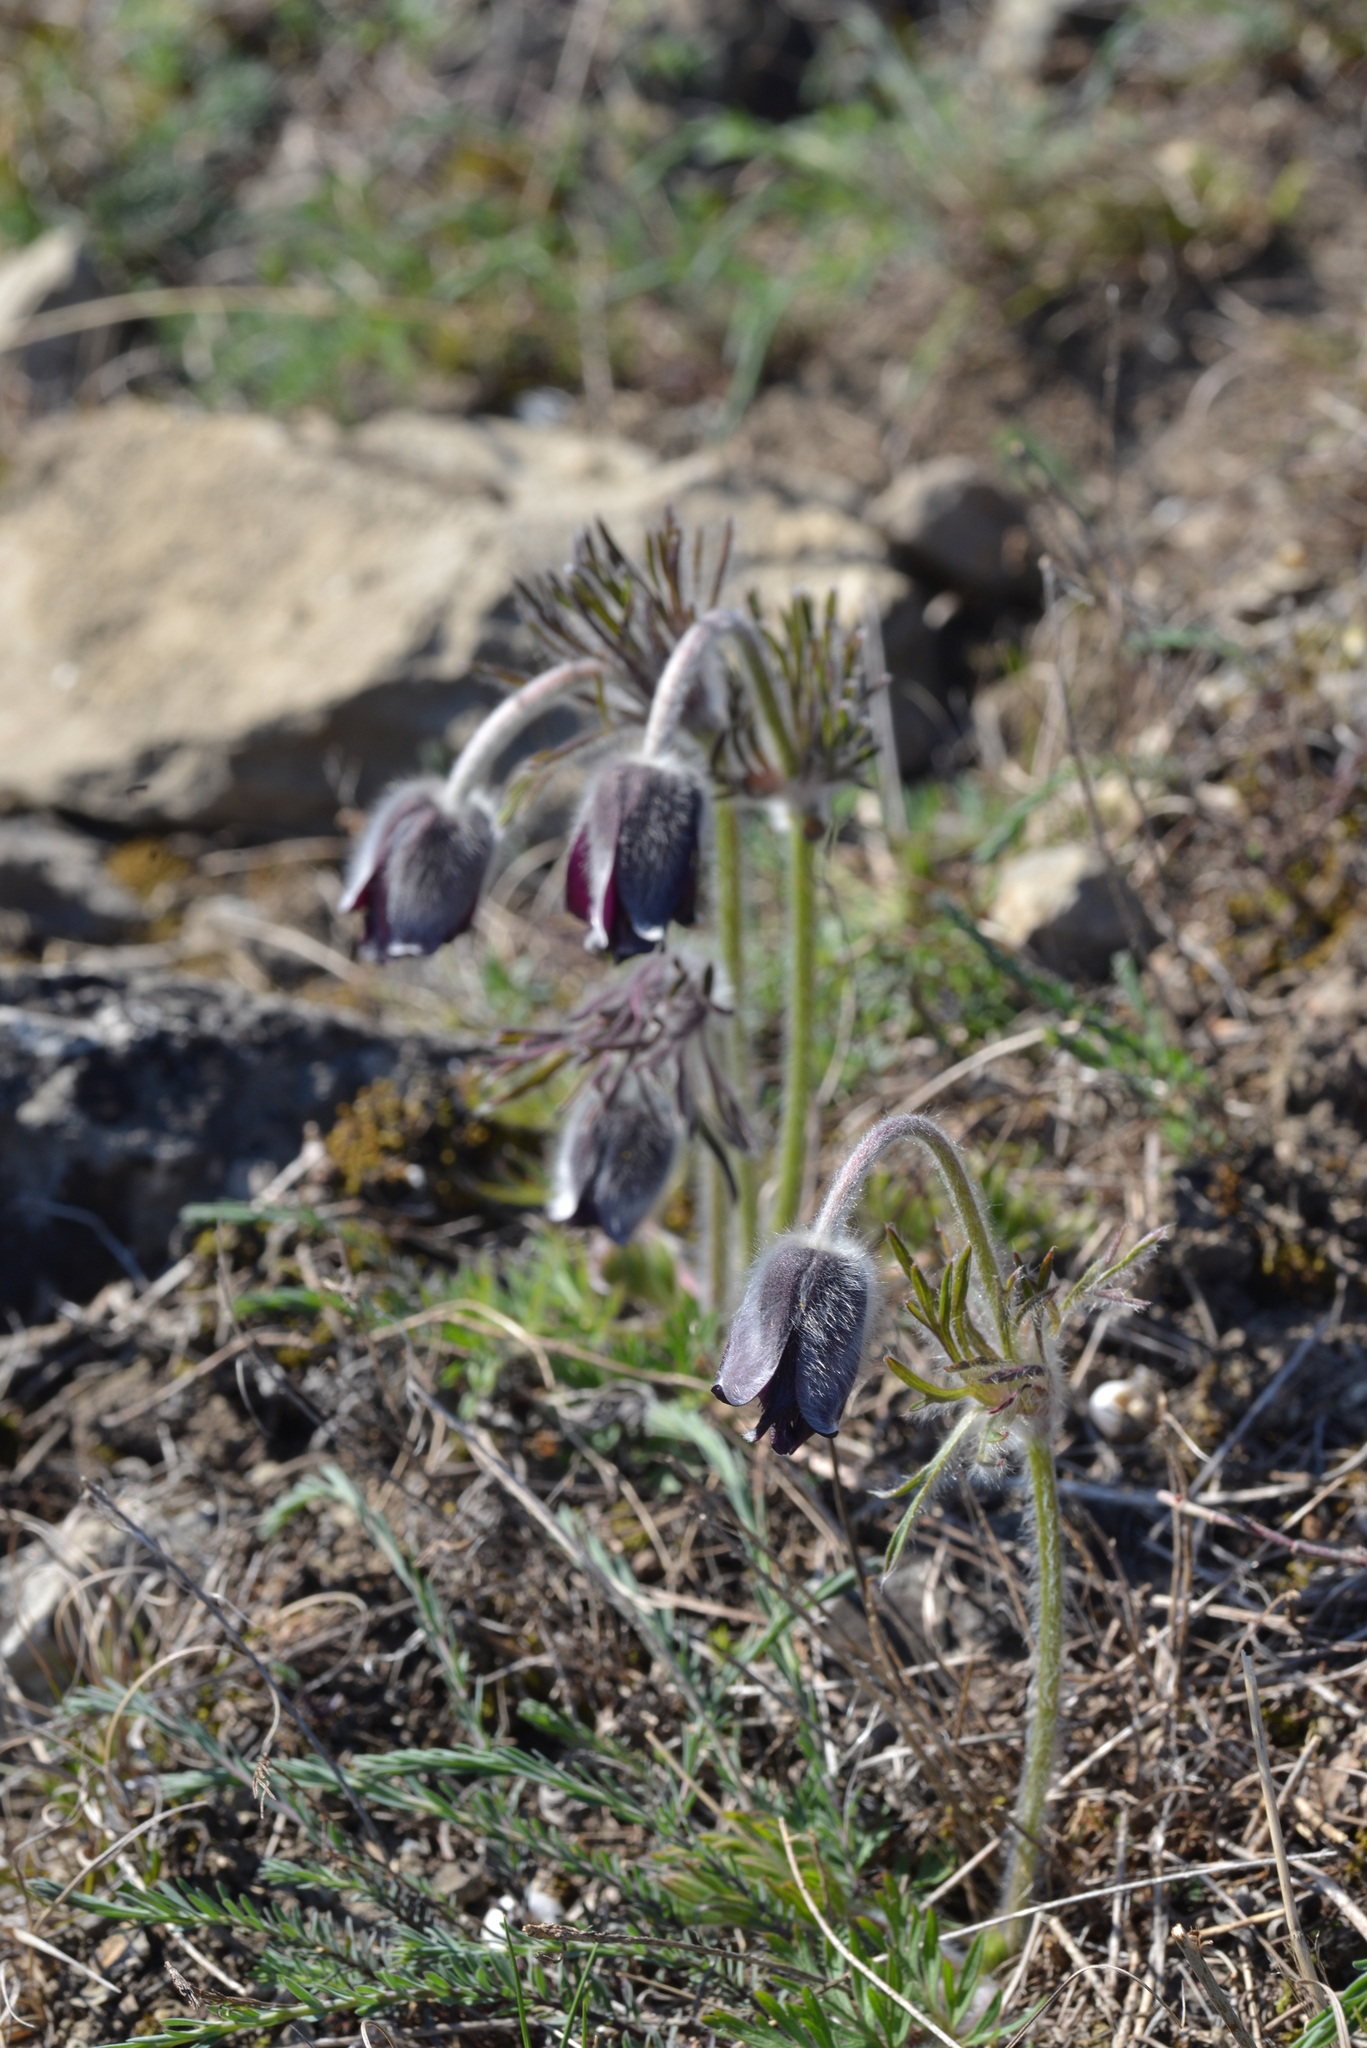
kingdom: Plantae
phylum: Tracheophyta
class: Magnoliopsida
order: Ranunculales
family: Ranunculaceae
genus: Pulsatilla
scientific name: Pulsatilla pratensis
